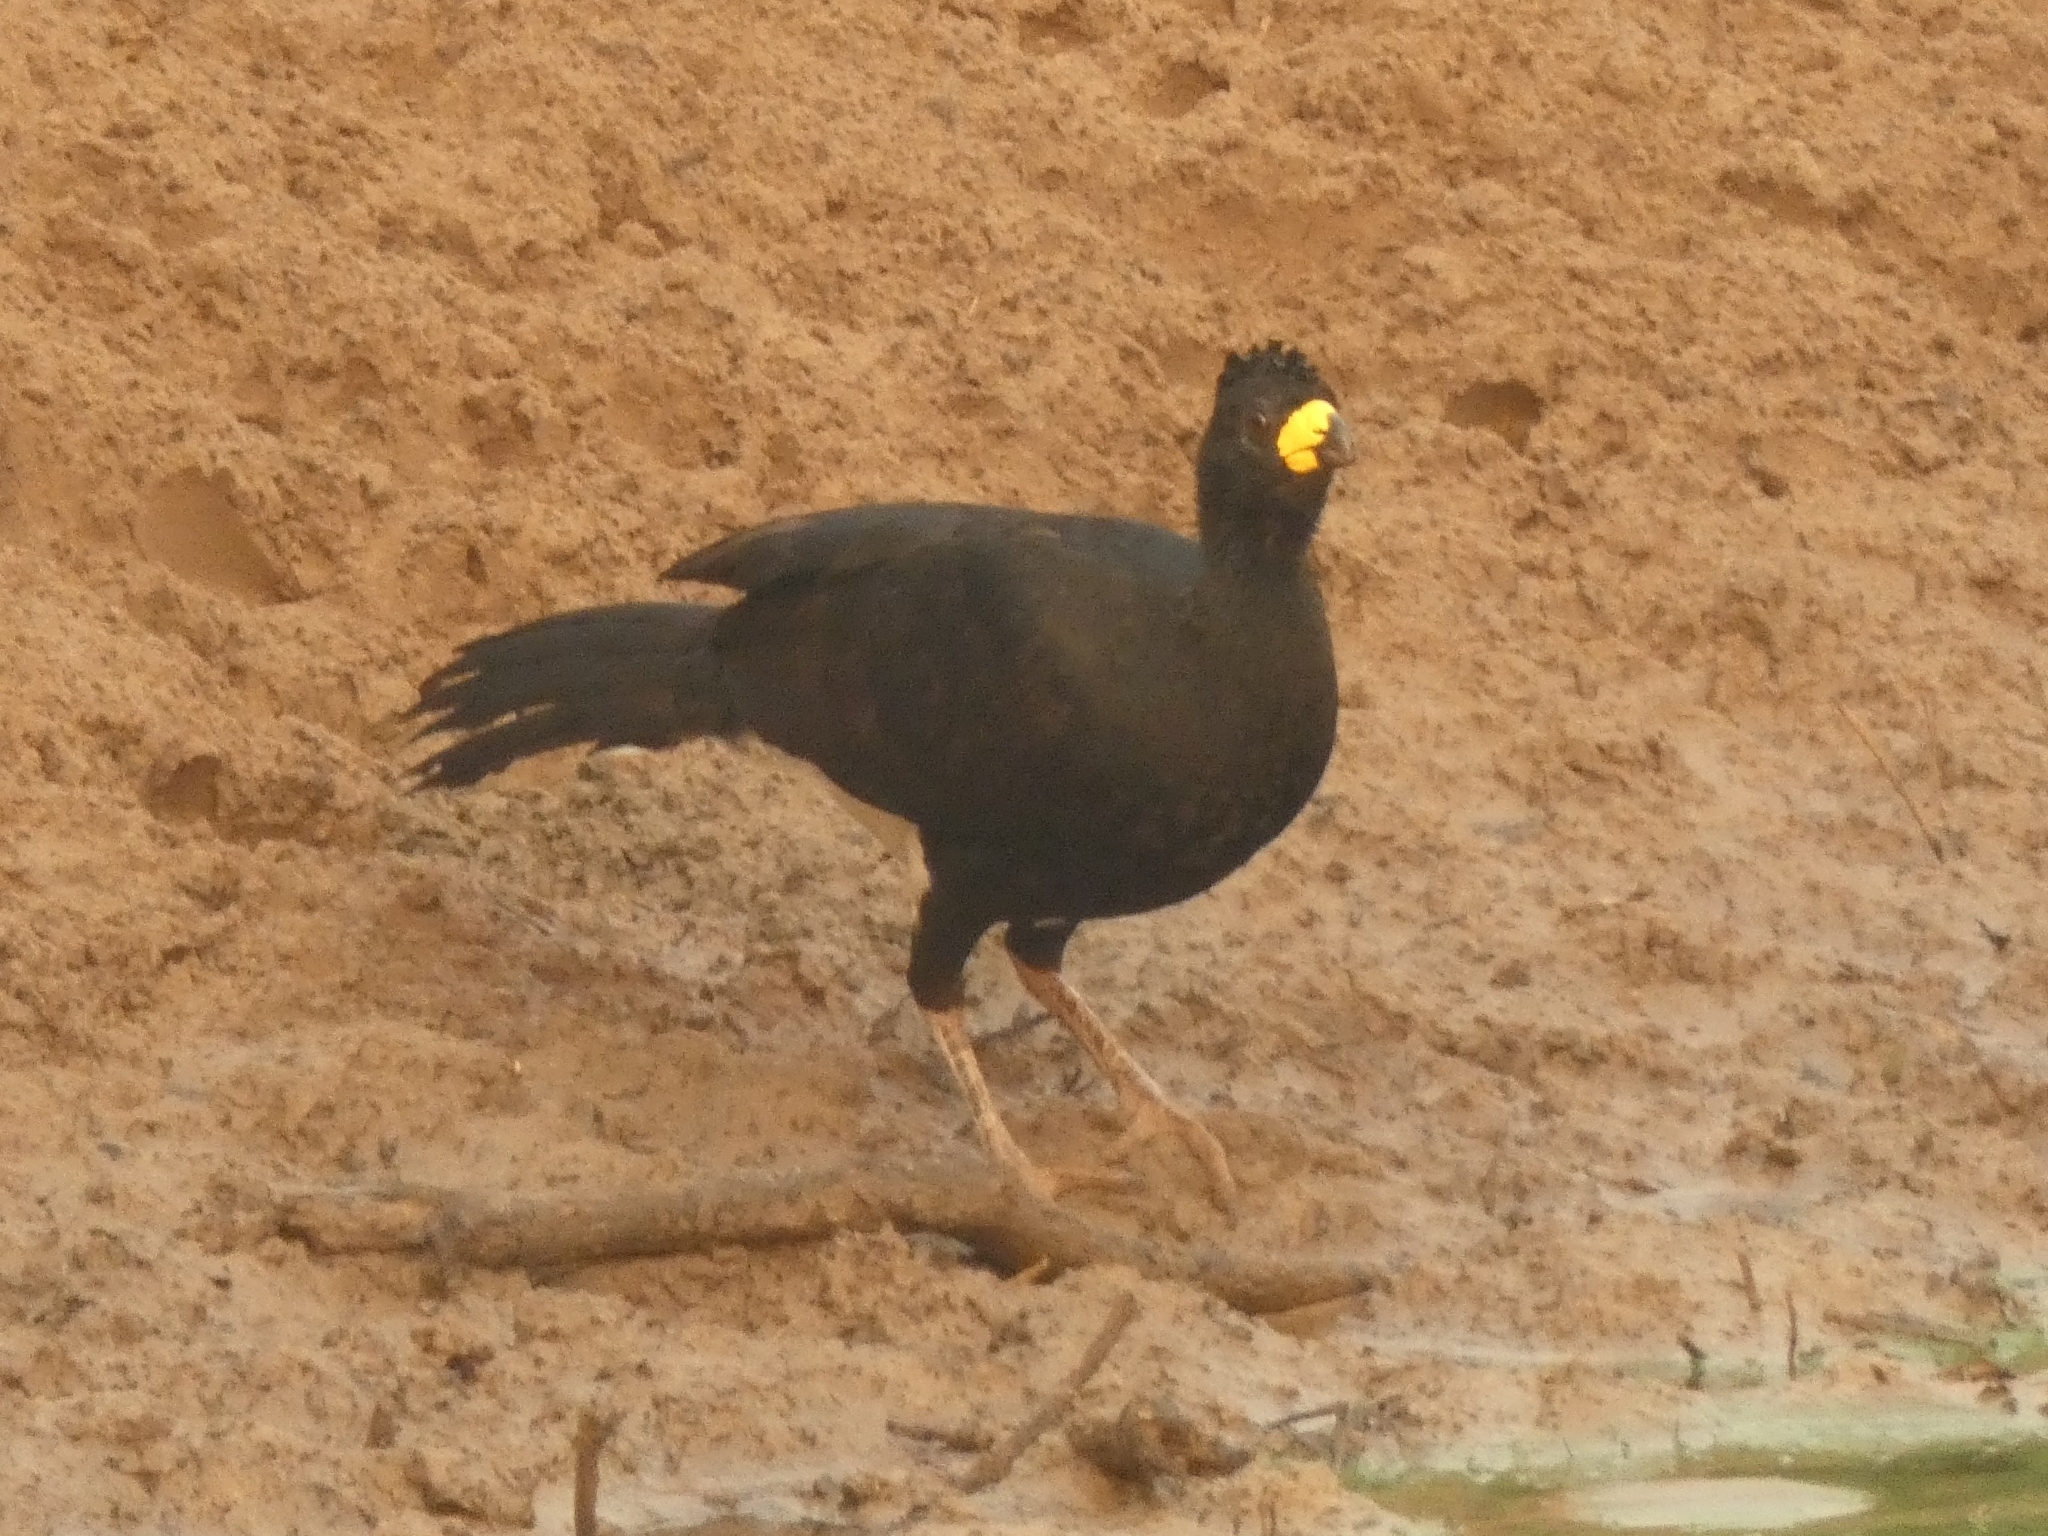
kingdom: Animalia
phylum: Chordata
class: Aves
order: Galliformes
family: Cracidae
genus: Crax
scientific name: Crax fasciolata
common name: Bare-faced curassow
